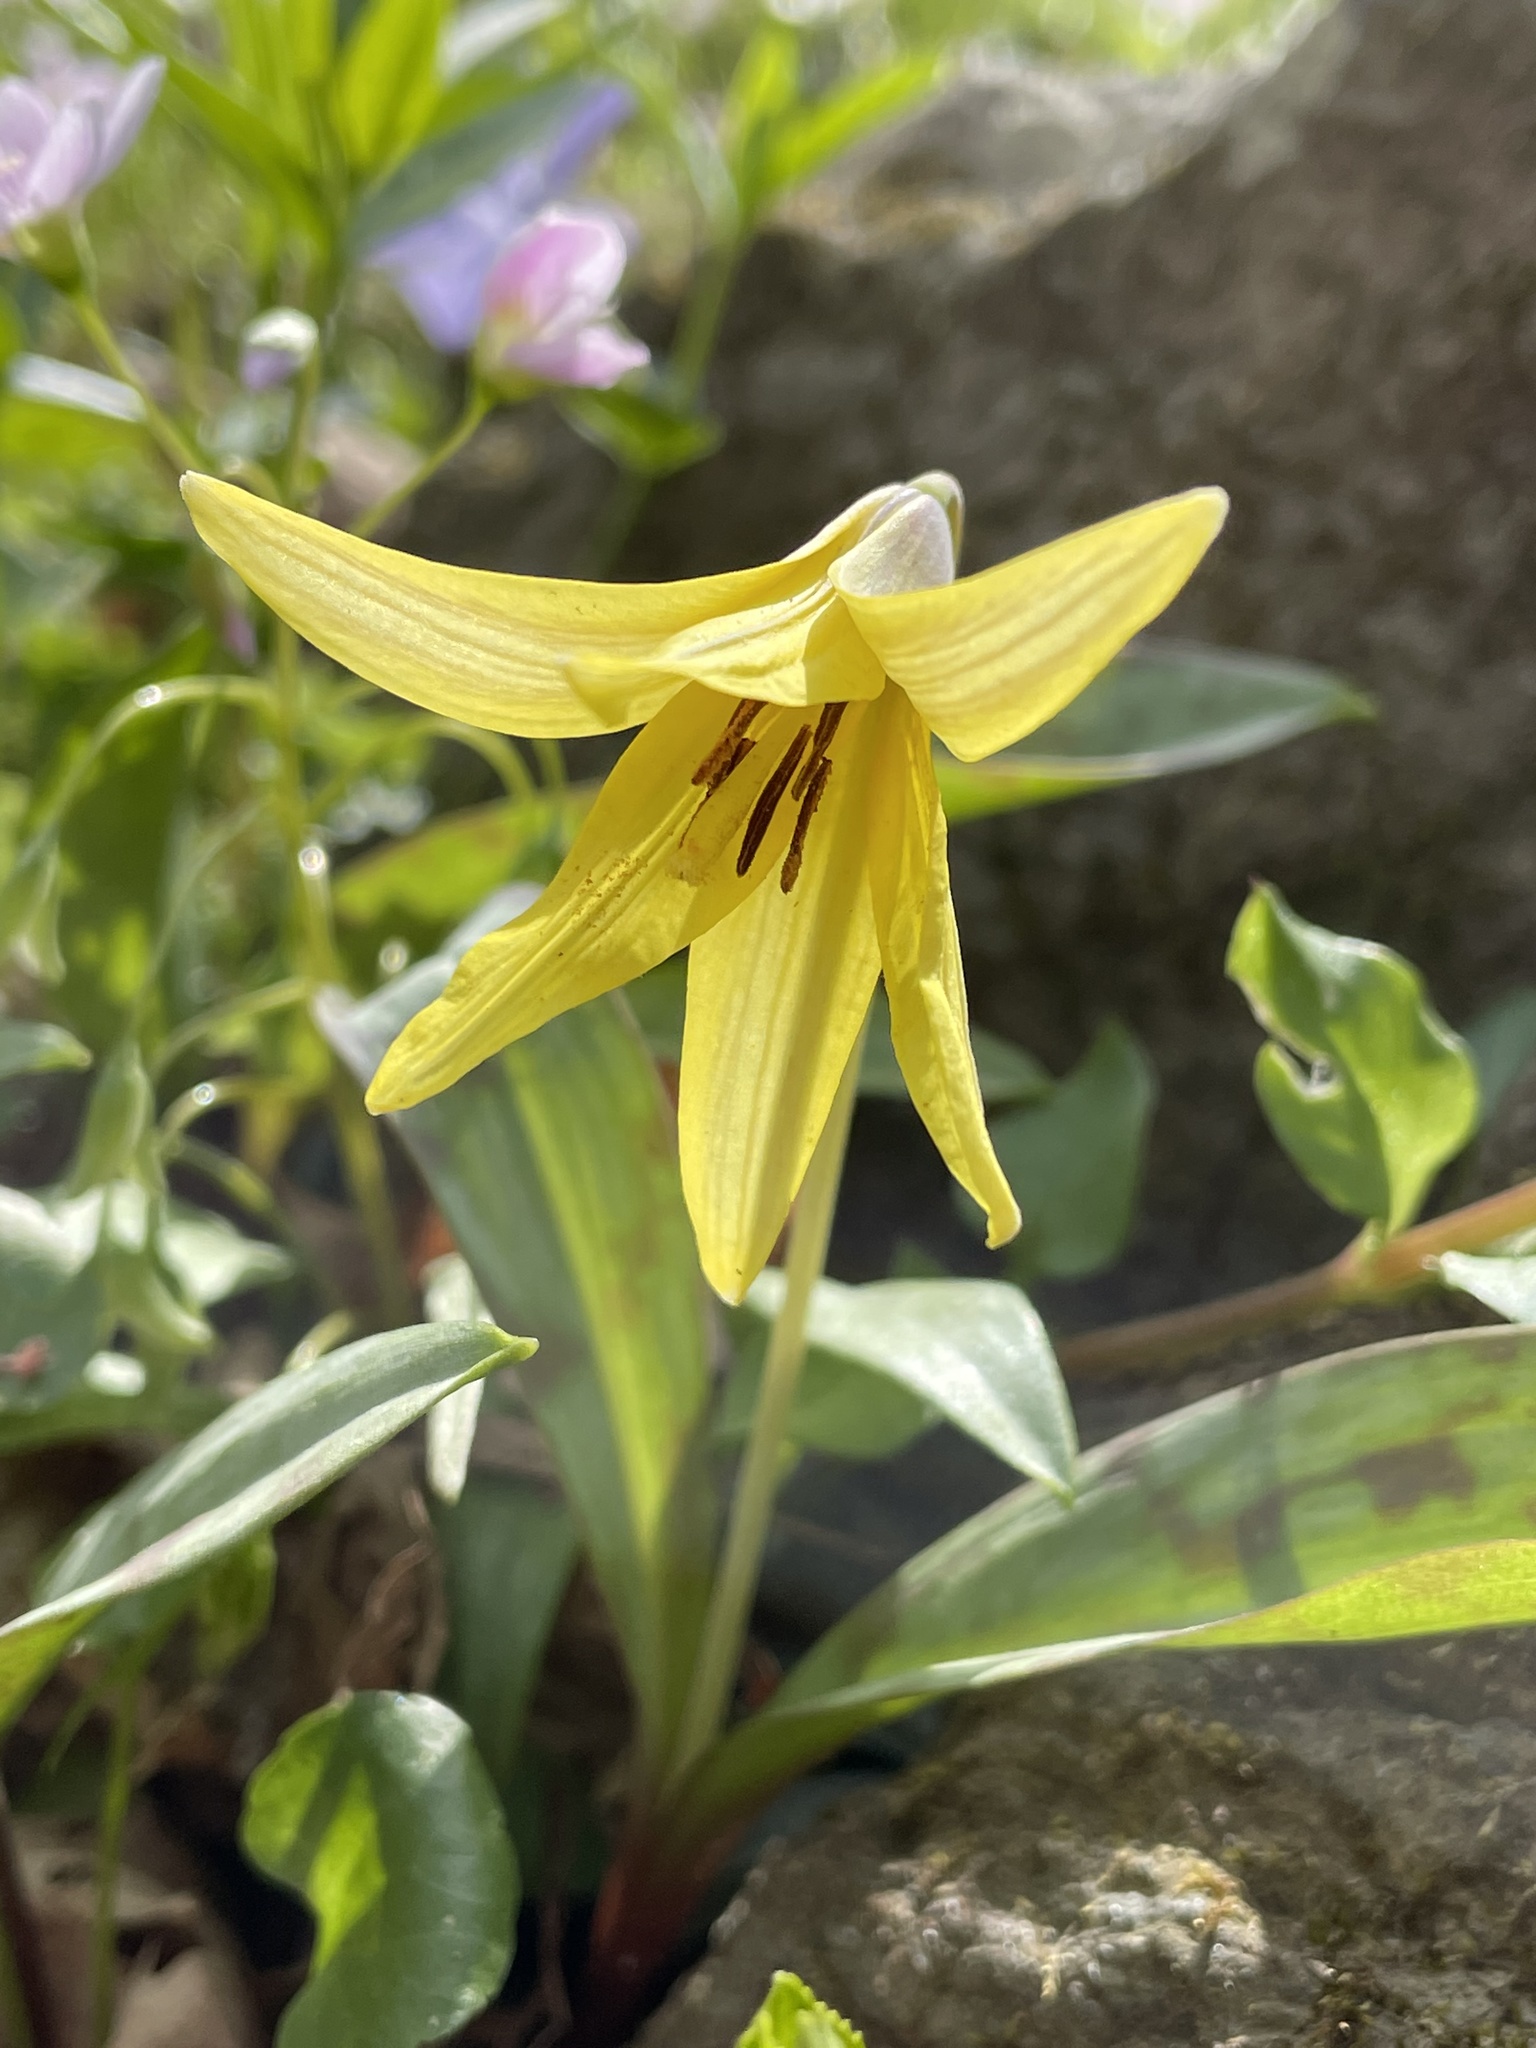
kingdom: Plantae
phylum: Tracheophyta
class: Liliopsida
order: Liliales
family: Liliaceae
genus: Erythronium
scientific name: Erythronium americanum
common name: Yellow adder's-tongue
